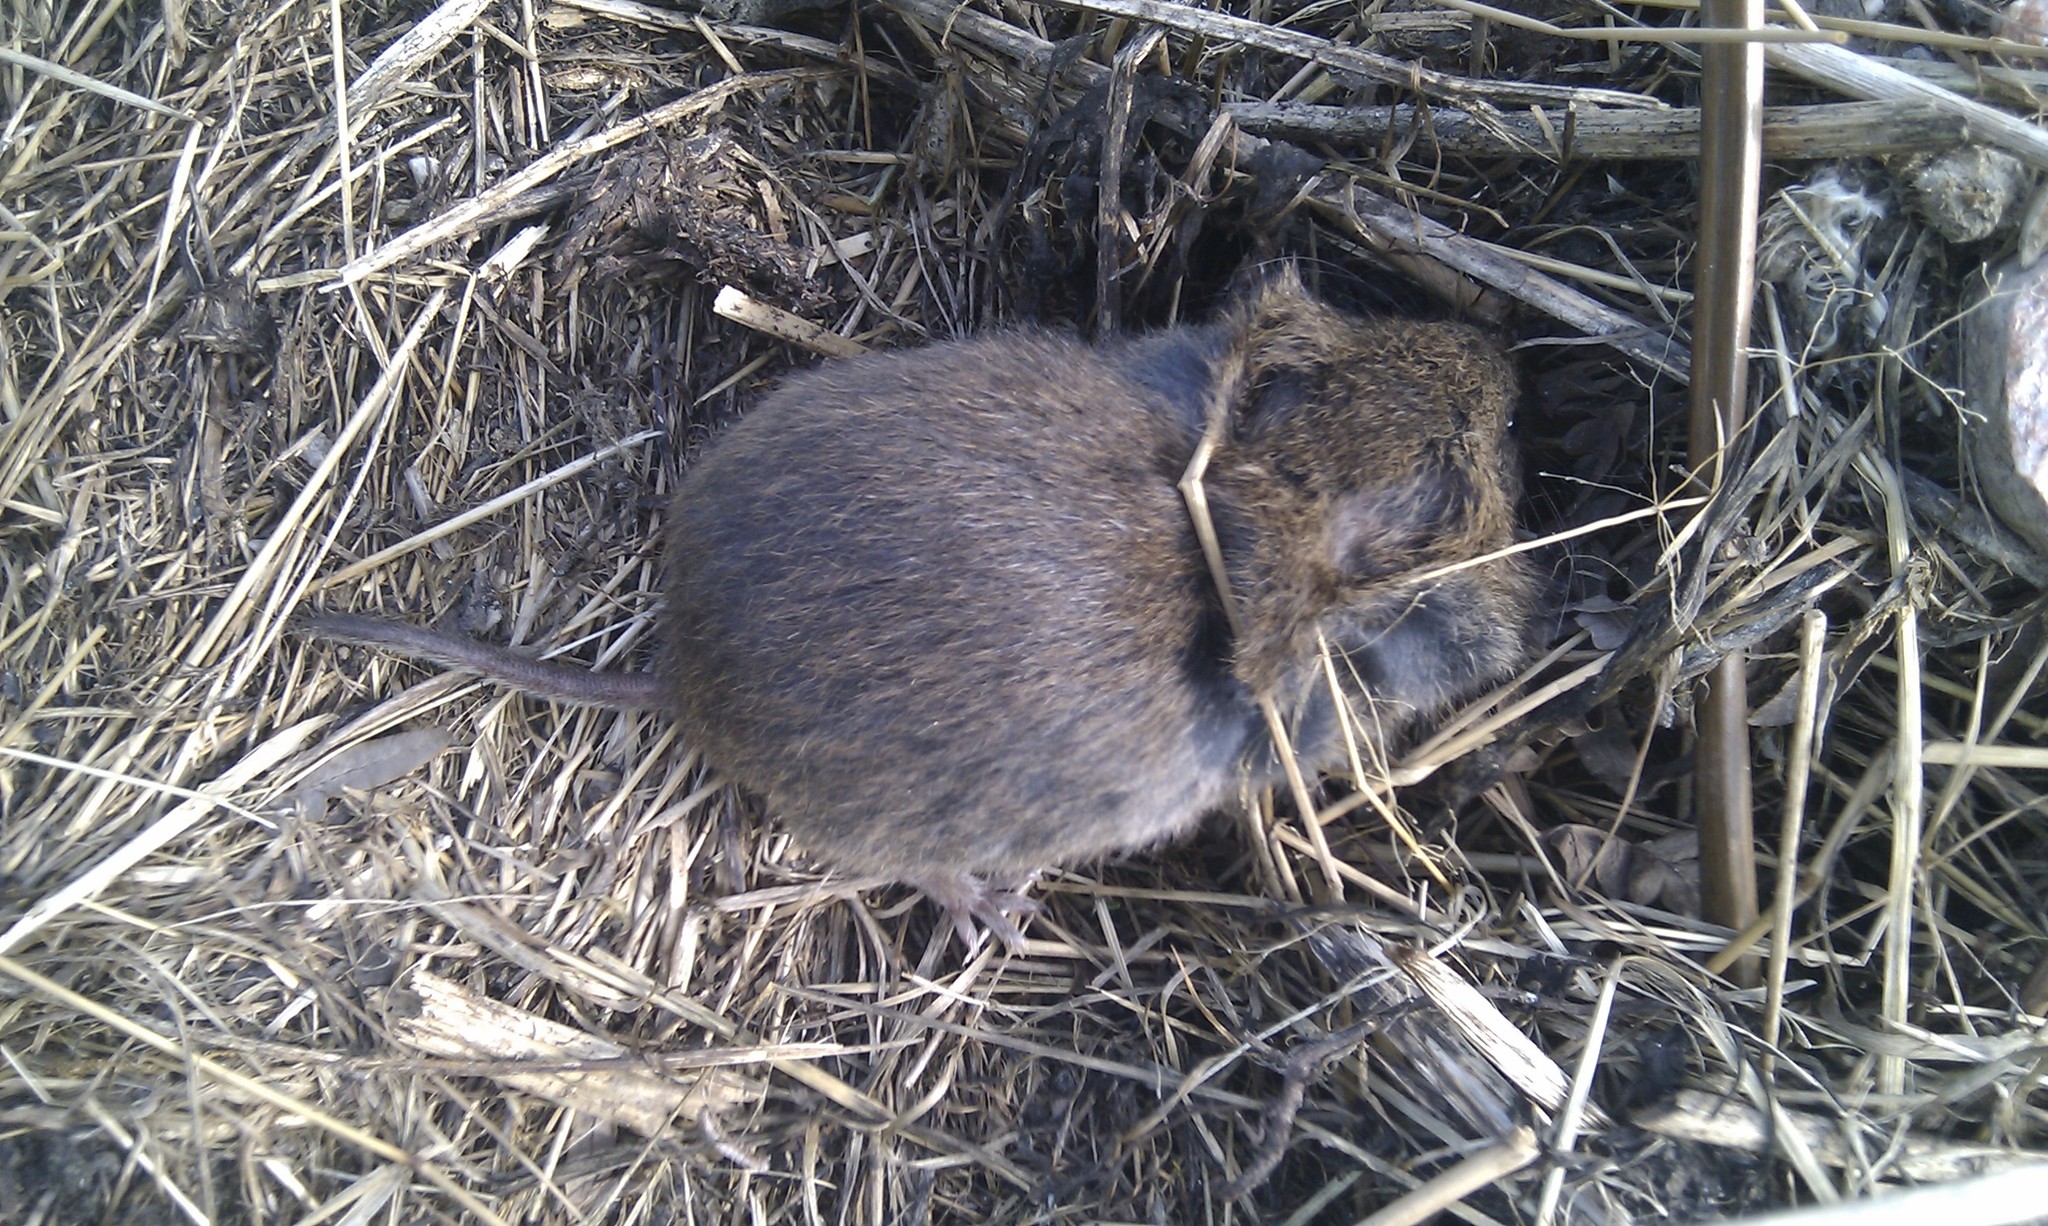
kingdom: Animalia
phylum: Chordata
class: Mammalia
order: Rodentia
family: Cricetidae
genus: Microtus
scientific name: Microtus agrestis
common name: Field vole
